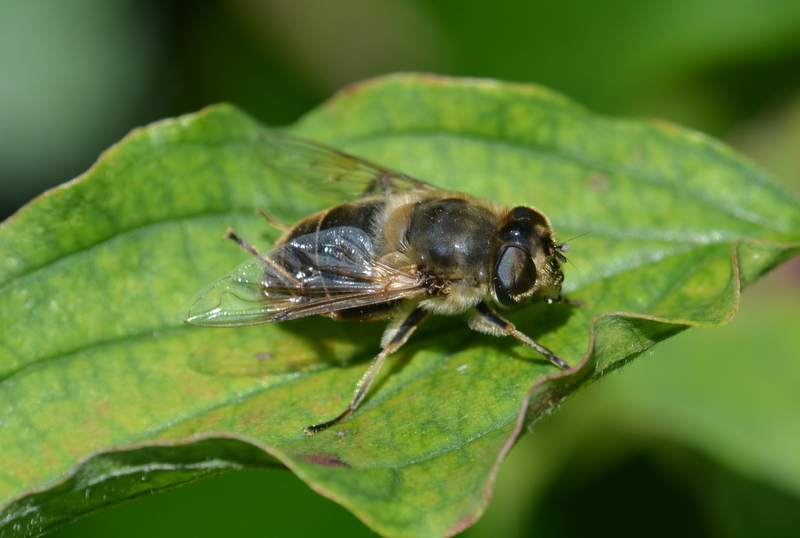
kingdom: Animalia
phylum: Arthropoda
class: Insecta
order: Diptera
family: Syrphidae
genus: Eristalis
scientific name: Eristalis tenax
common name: Drone fly
